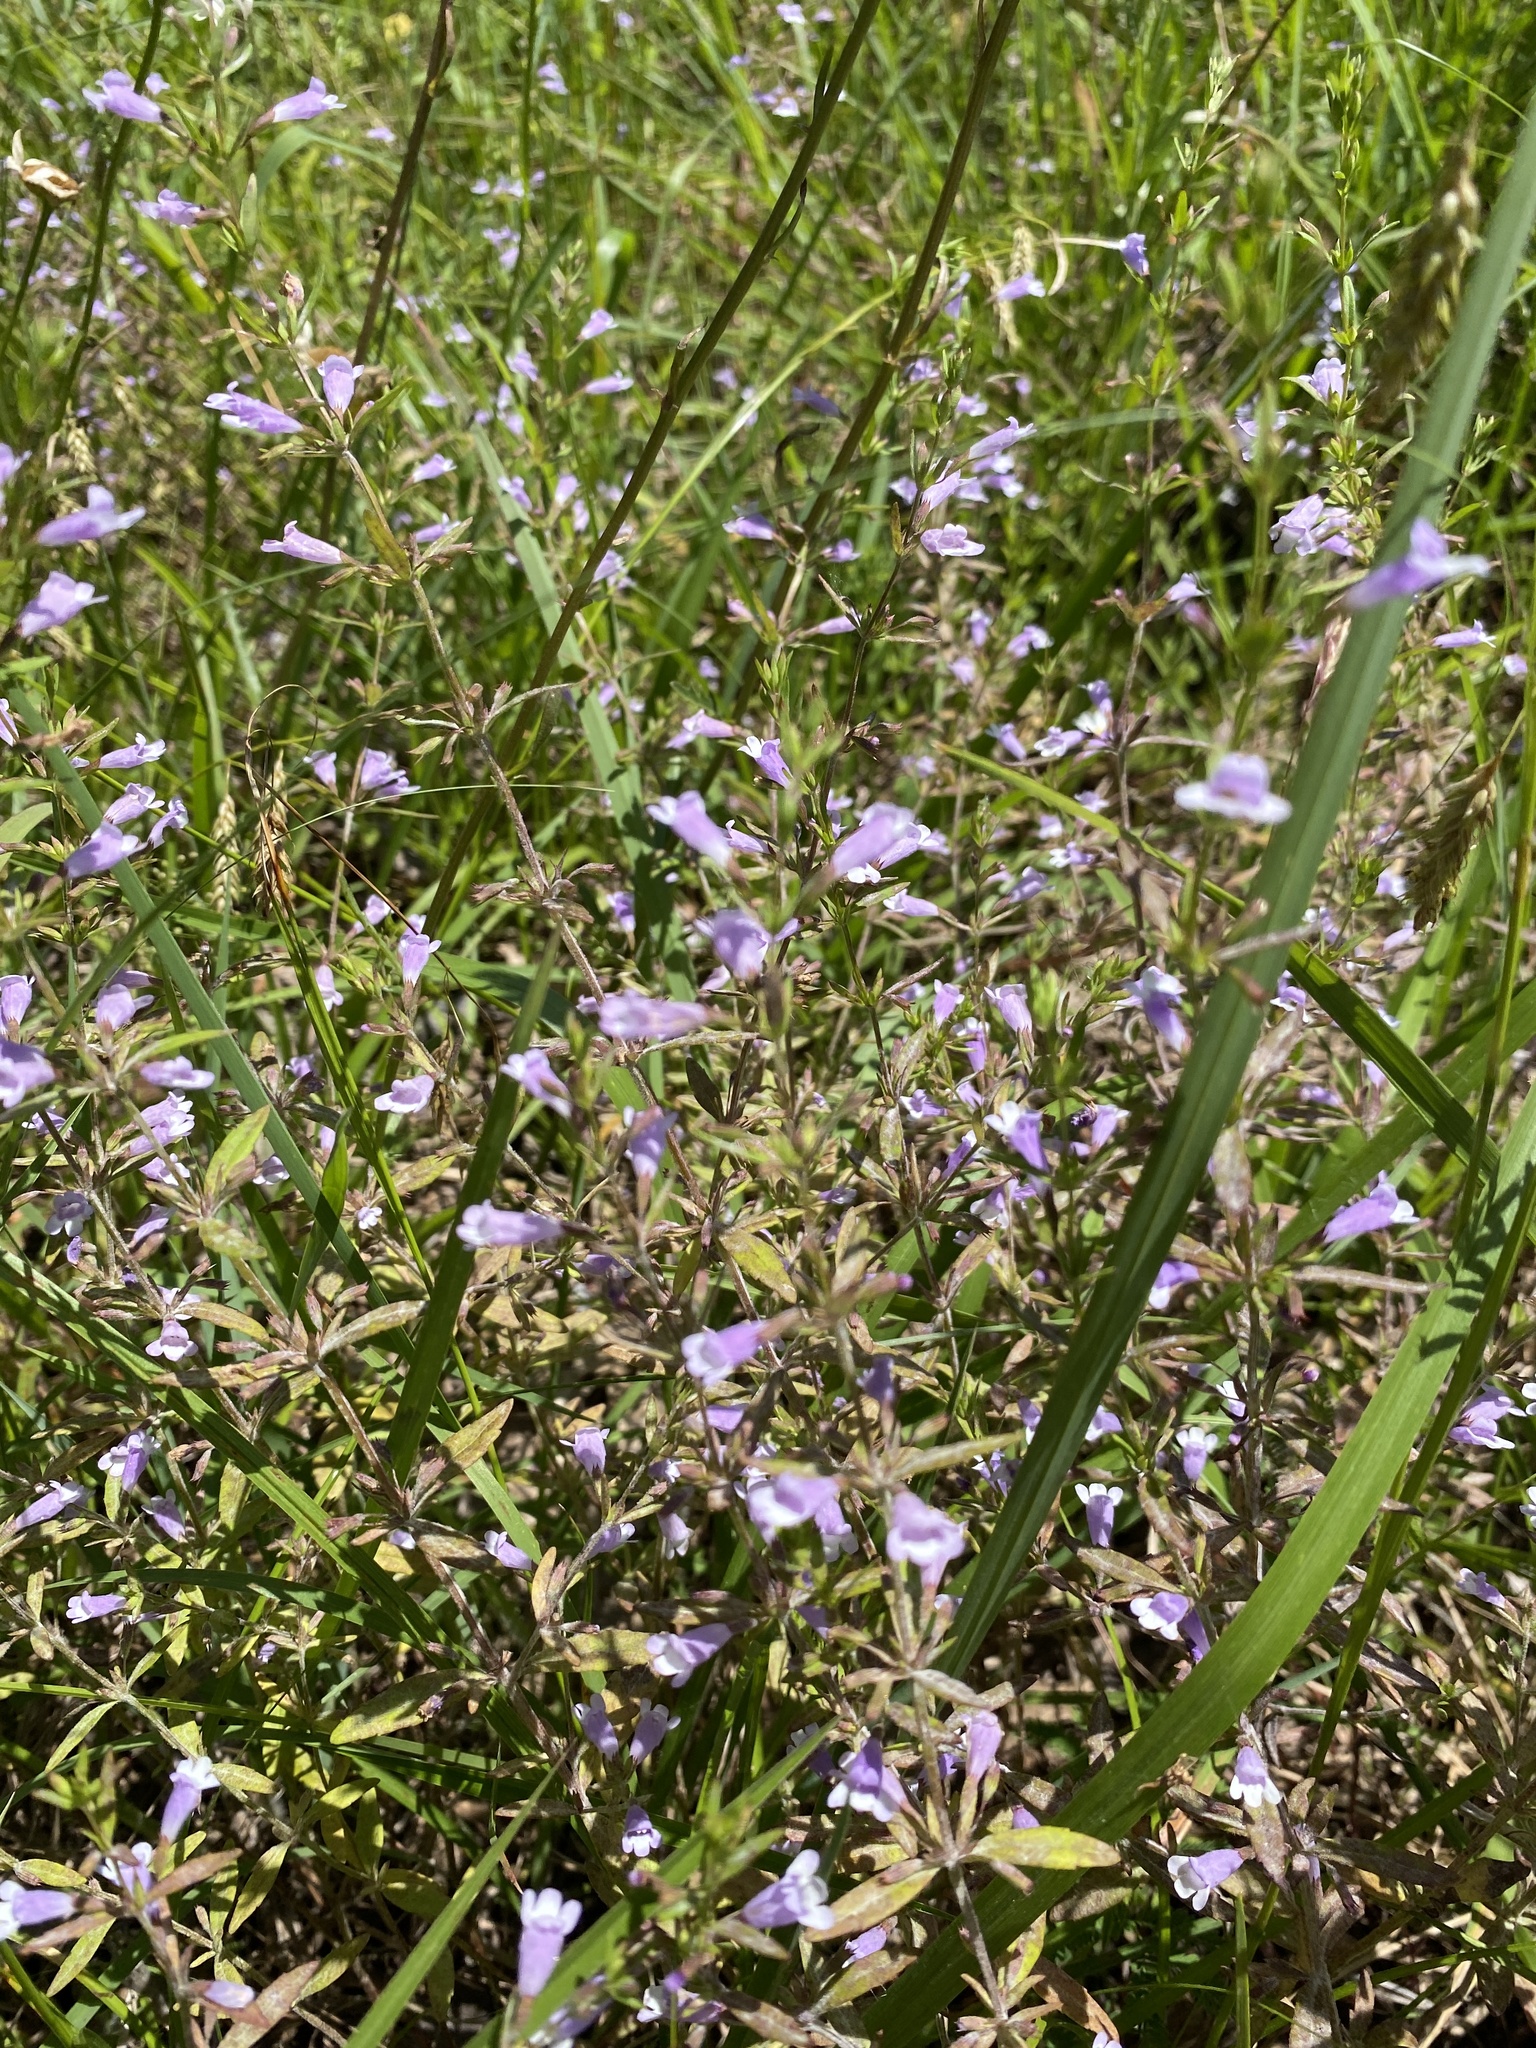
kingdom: Plantae
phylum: Tracheophyta
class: Magnoliopsida
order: Lamiales
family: Lamiaceae
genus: Clinopodium
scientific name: Clinopodium glabellum
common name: Ozark calamint
